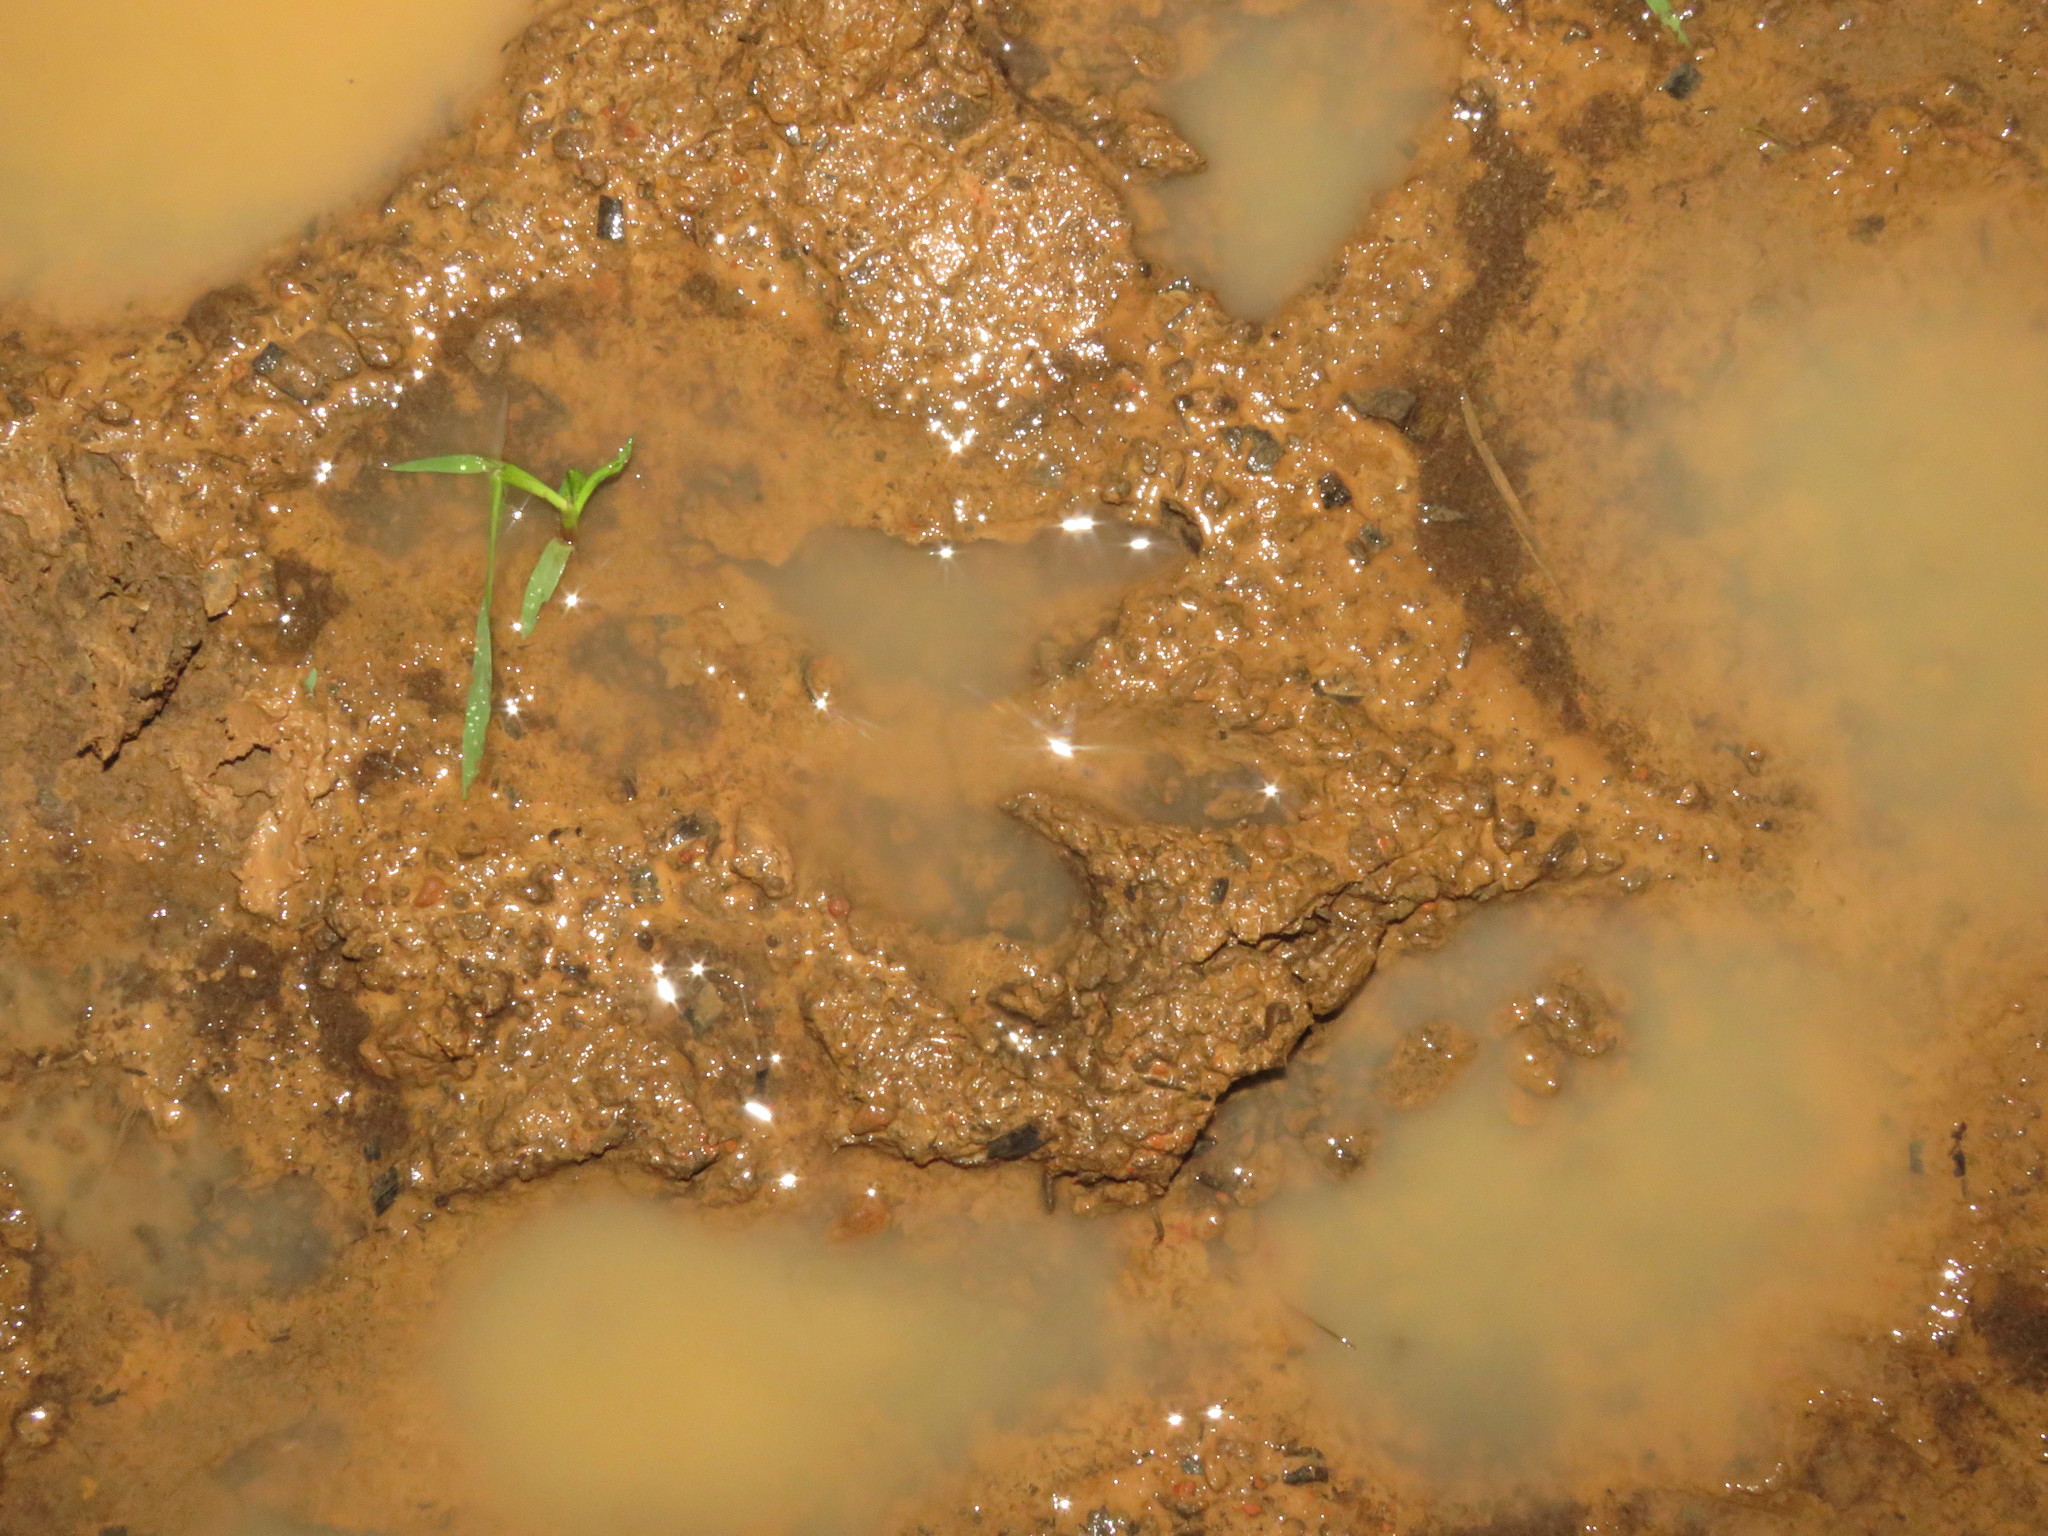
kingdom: Animalia
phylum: Chordata
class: Mammalia
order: Rodentia
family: Caviidae
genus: Hydrochoerus
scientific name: Hydrochoerus hydrochaeris
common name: Capybara
